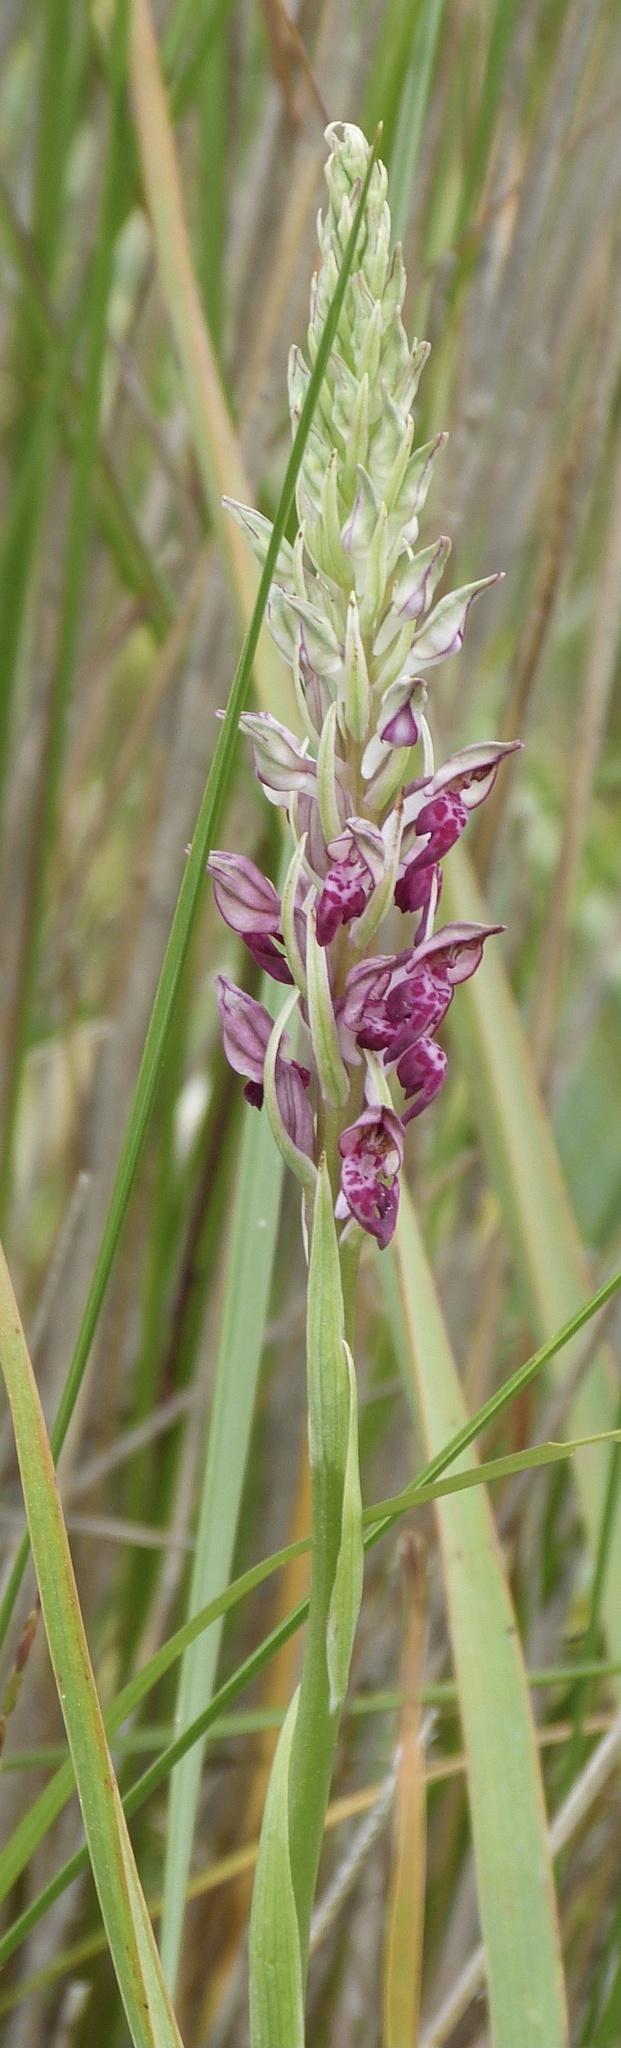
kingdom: Plantae
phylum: Tracheophyta
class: Liliopsida
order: Asparagales
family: Orchidaceae
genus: Anacamptis
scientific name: Anacamptis coriophora
